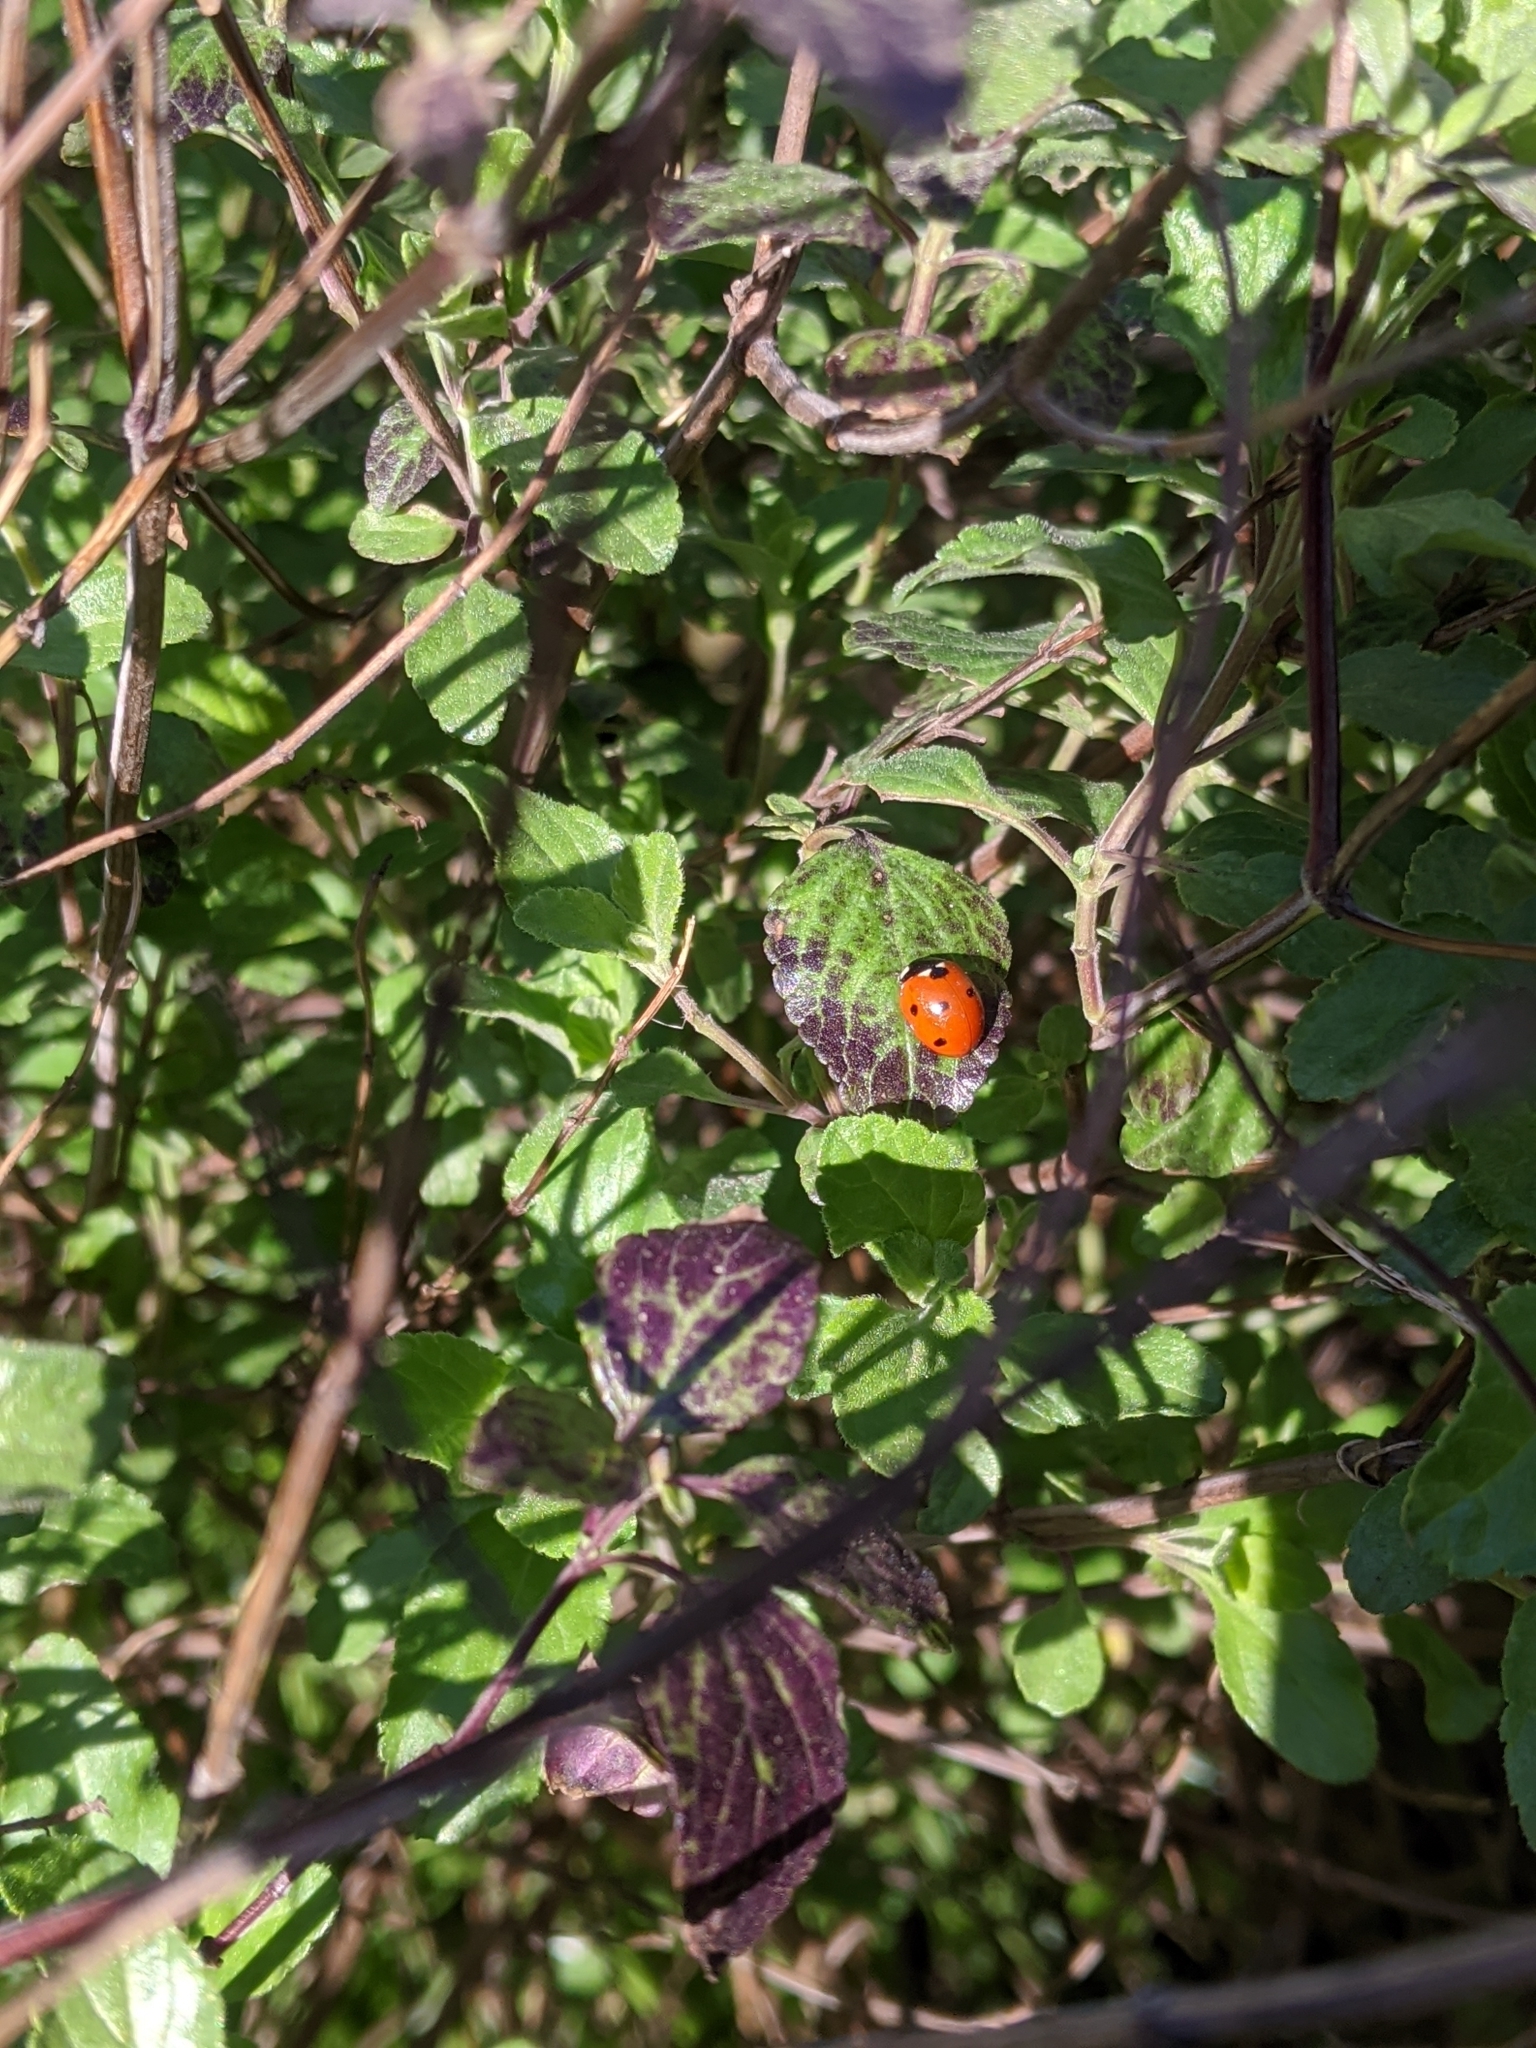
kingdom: Animalia
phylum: Arthropoda
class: Insecta
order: Coleoptera
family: Coccinellidae
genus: Coccinella
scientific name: Coccinella septempunctata
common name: Sevenspotted lady beetle
